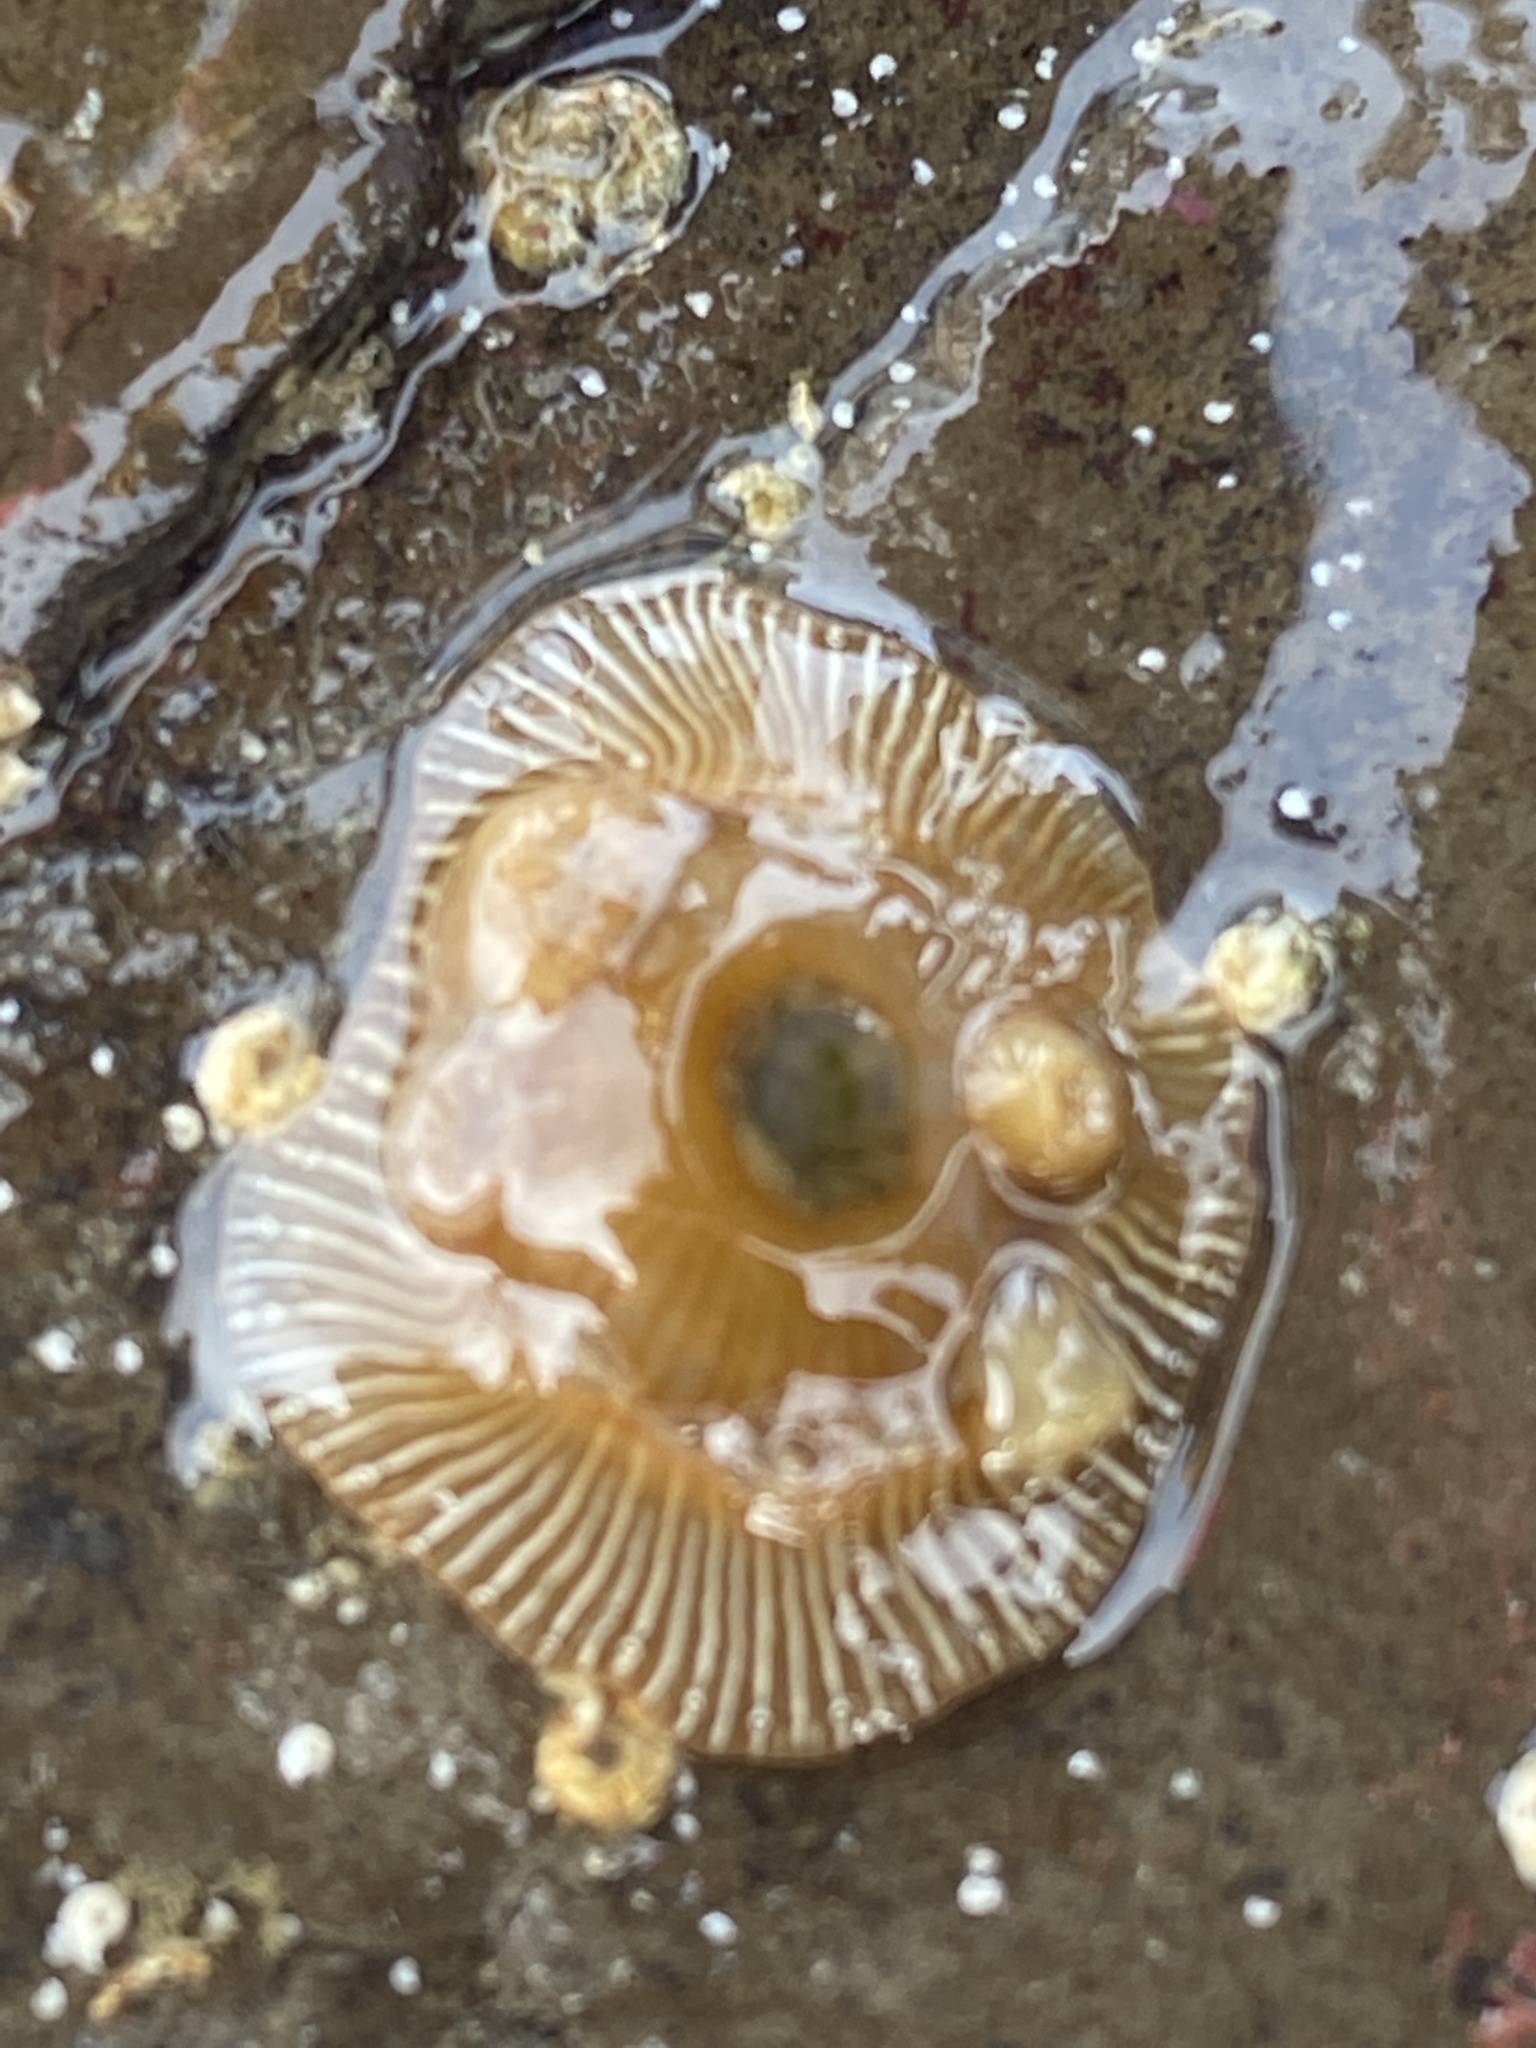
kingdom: Animalia
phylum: Cnidaria
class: Anthozoa
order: Actiniaria
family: Actiniidae
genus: Epiactis
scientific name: Epiactis prolifera
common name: Brooding anemone
